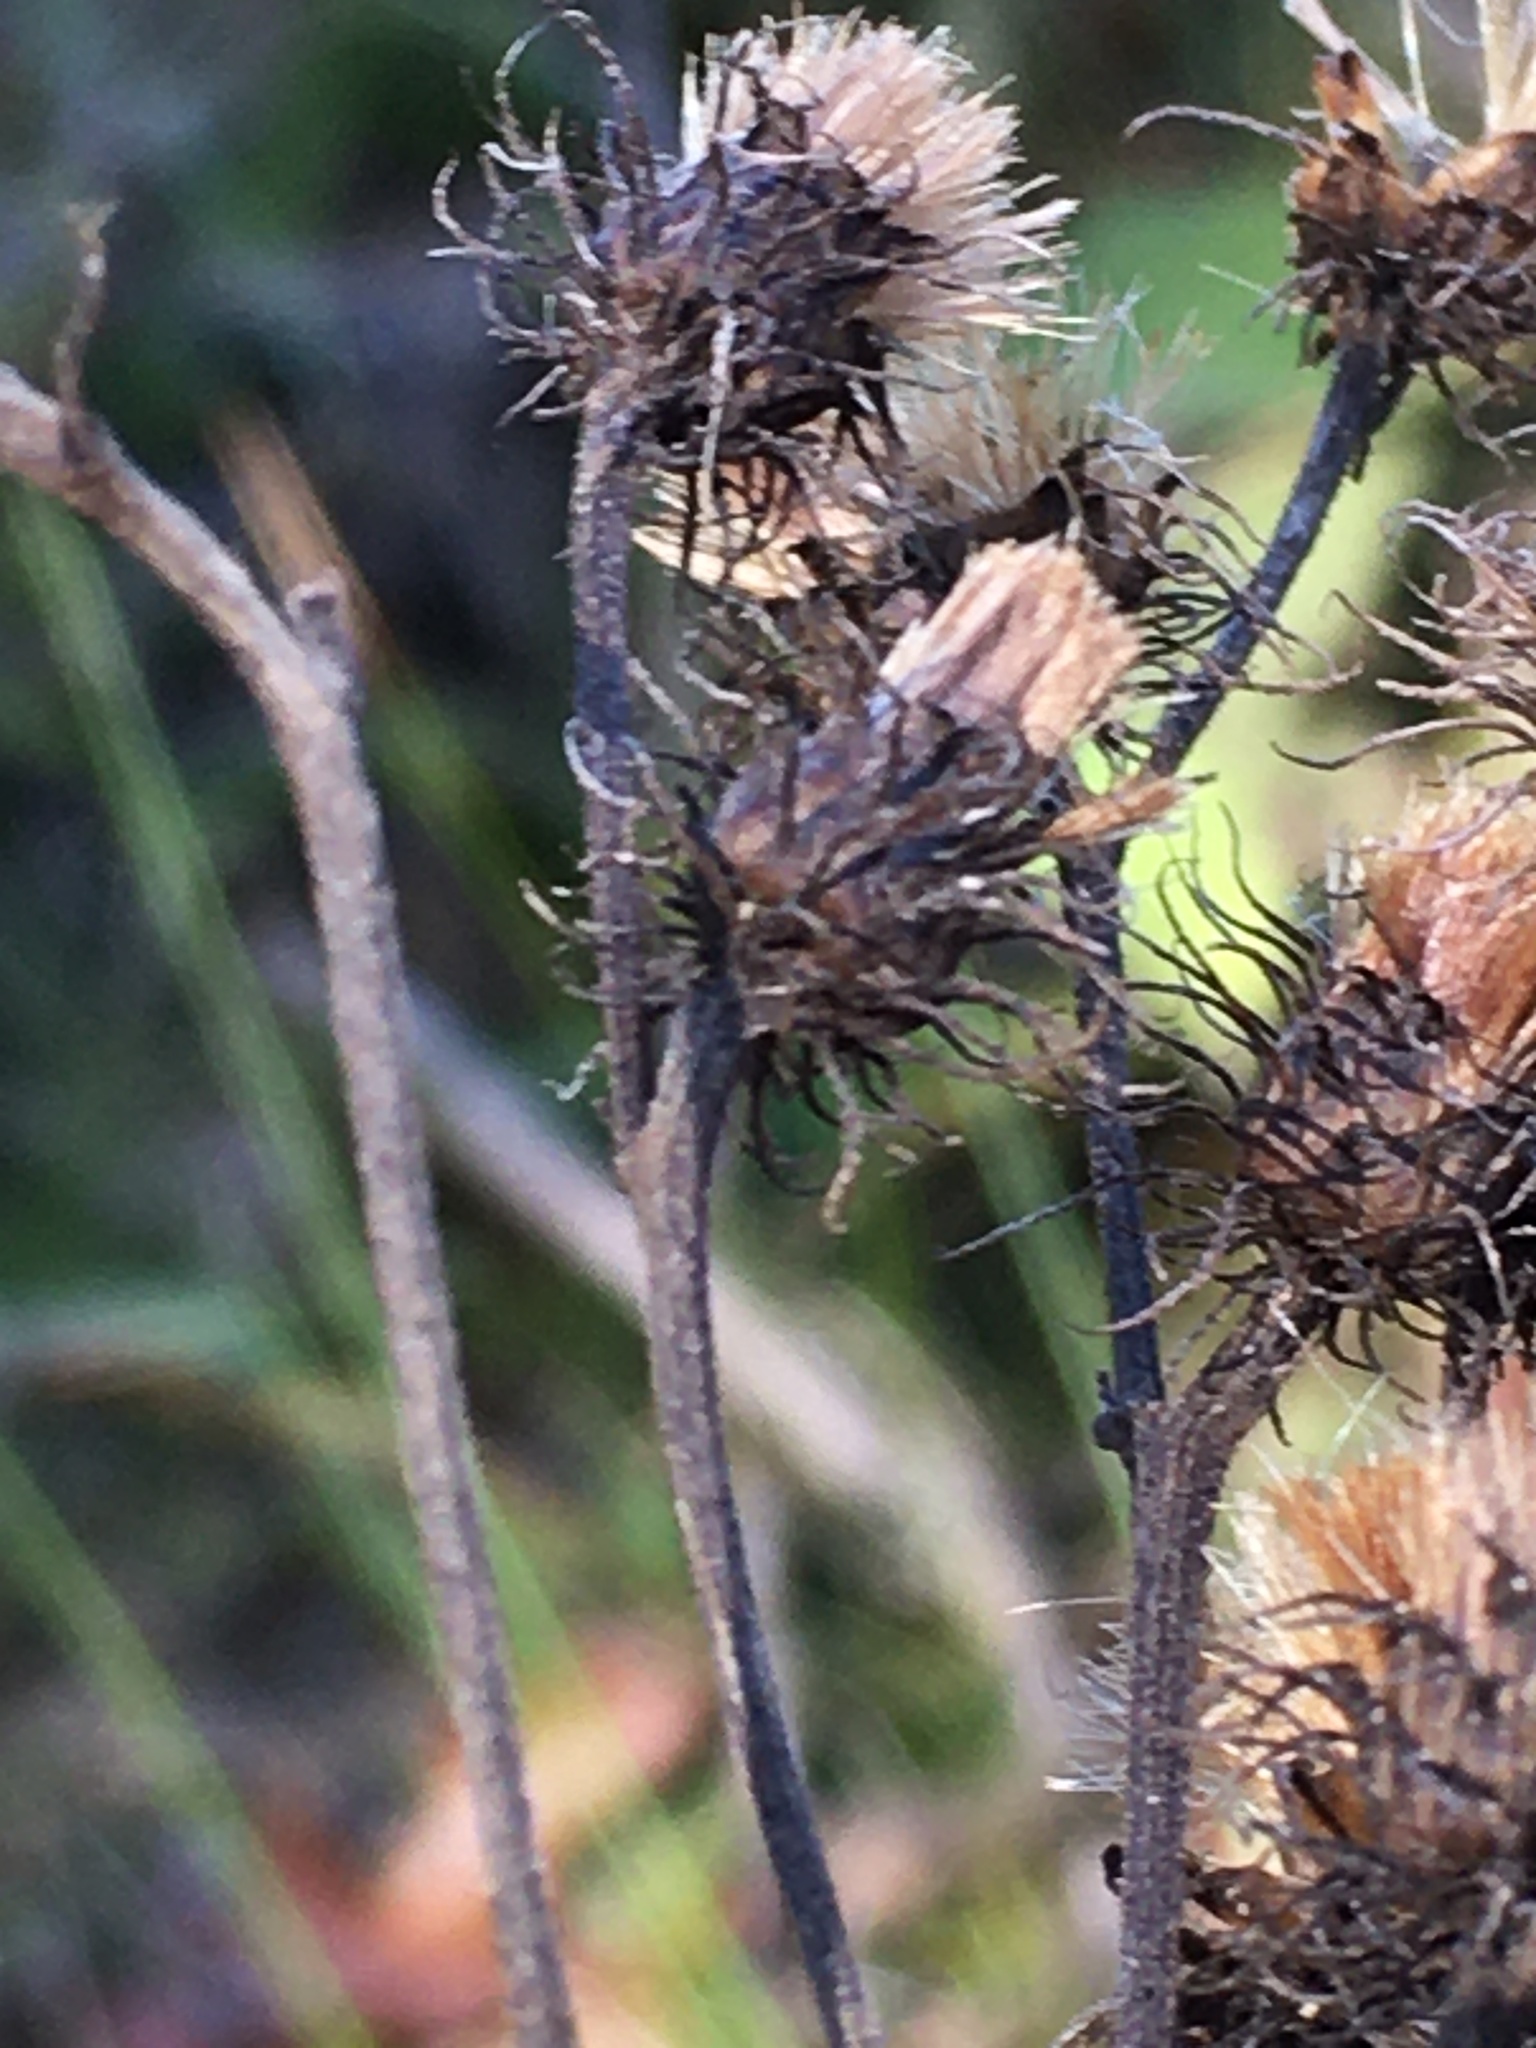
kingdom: Plantae
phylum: Tracheophyta
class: Magnoliopsida
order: Asterales
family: Asteraceae
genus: Vernonia
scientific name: Vernonia noveboracensis
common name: New york ironweed
